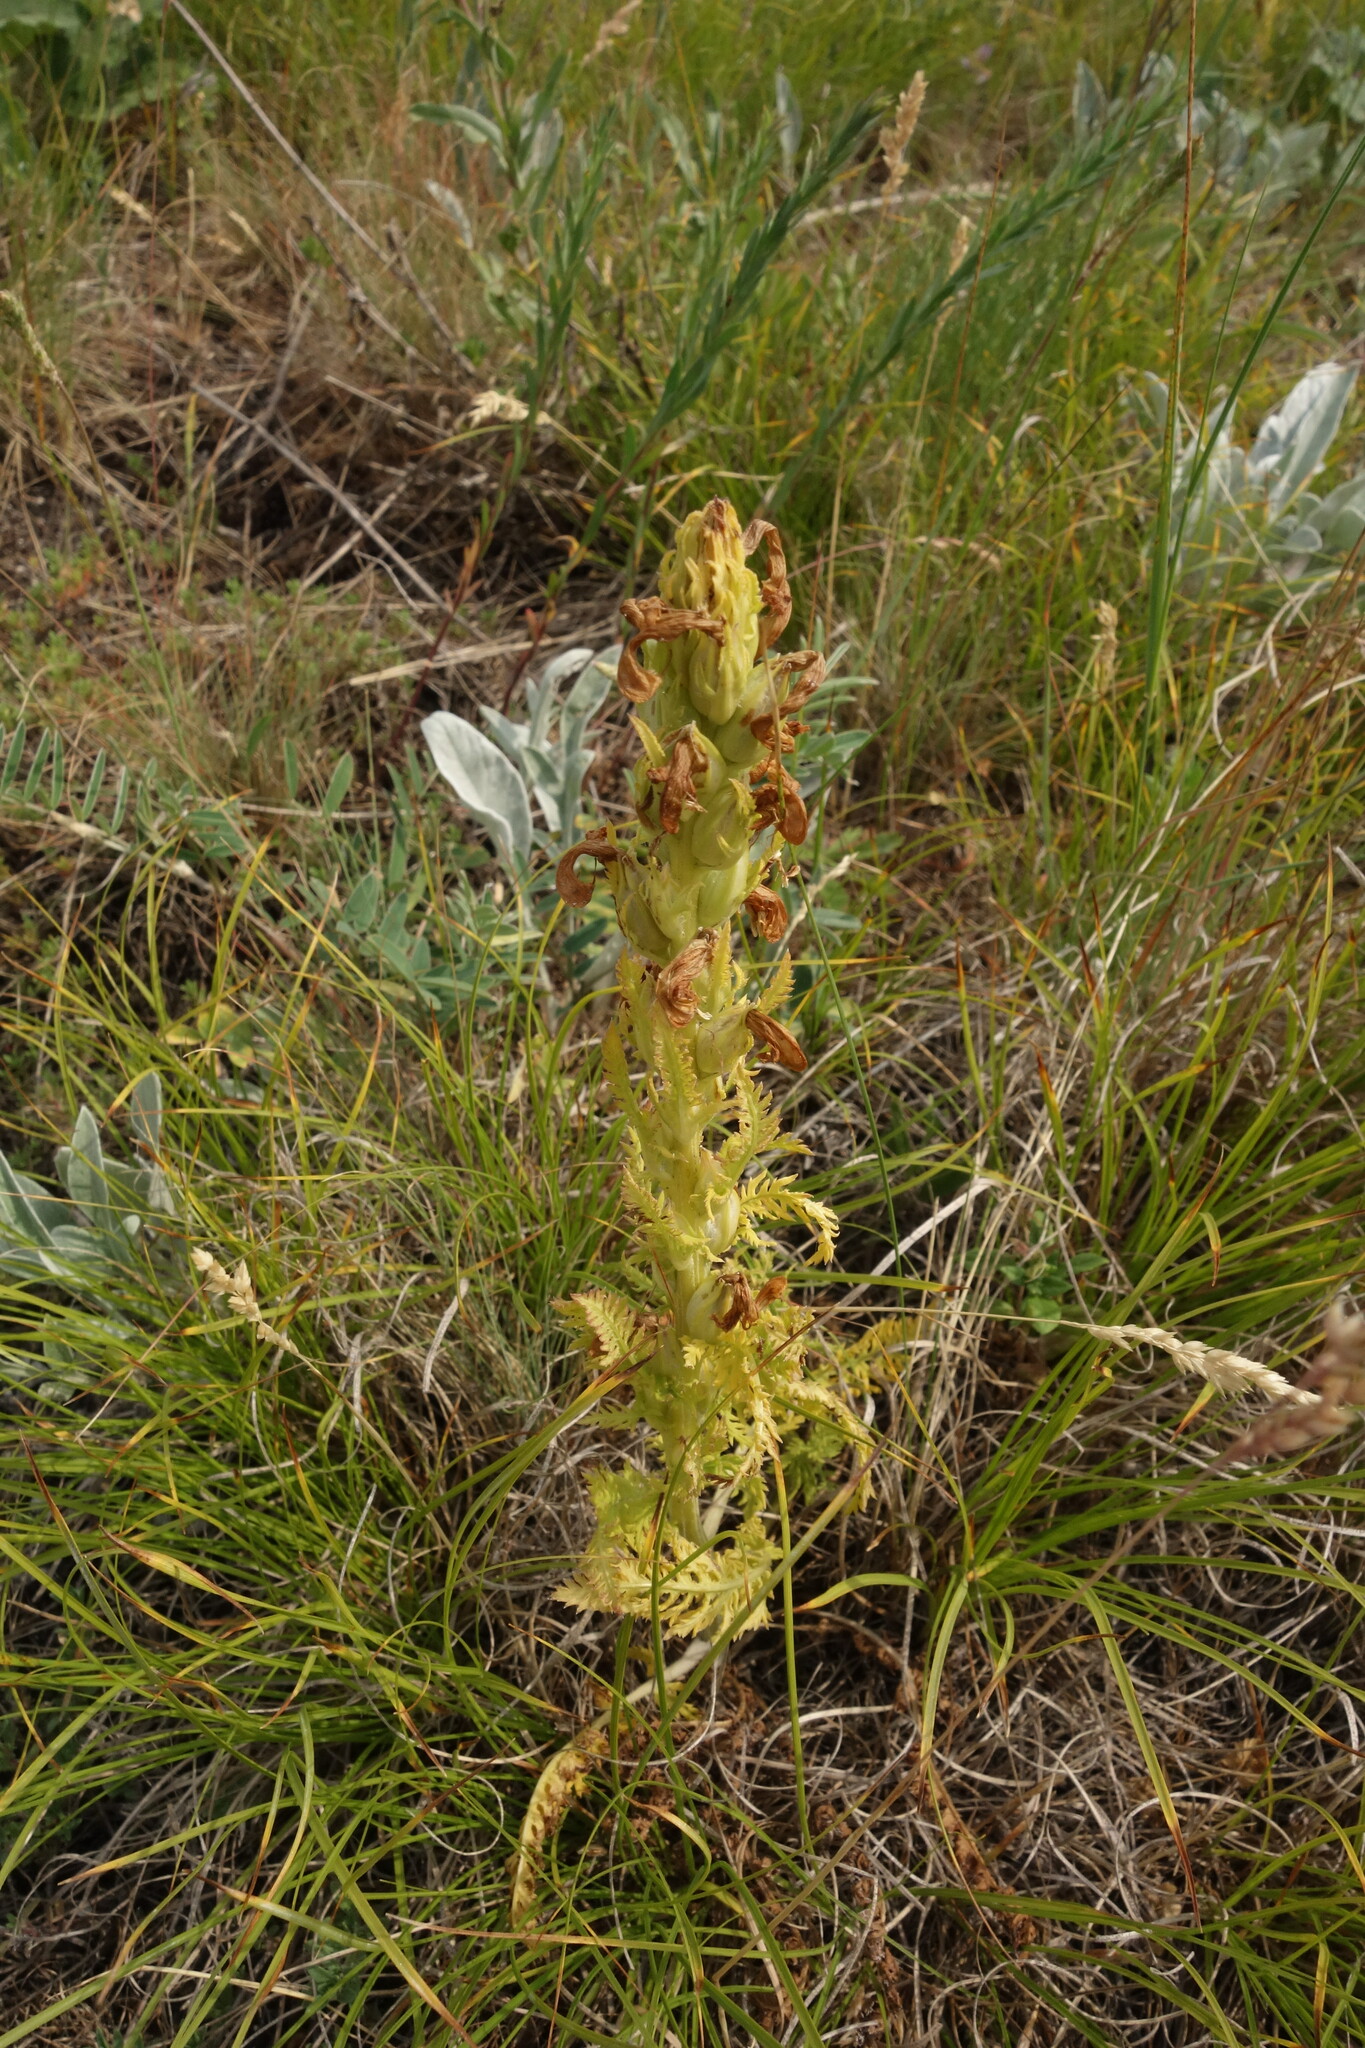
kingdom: Plantae
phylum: Tracheophyta
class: Magnoliopsida
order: Lamiales
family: Orobanchaceae
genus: Pedicularis
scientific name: Pedicularis kaufmannii
